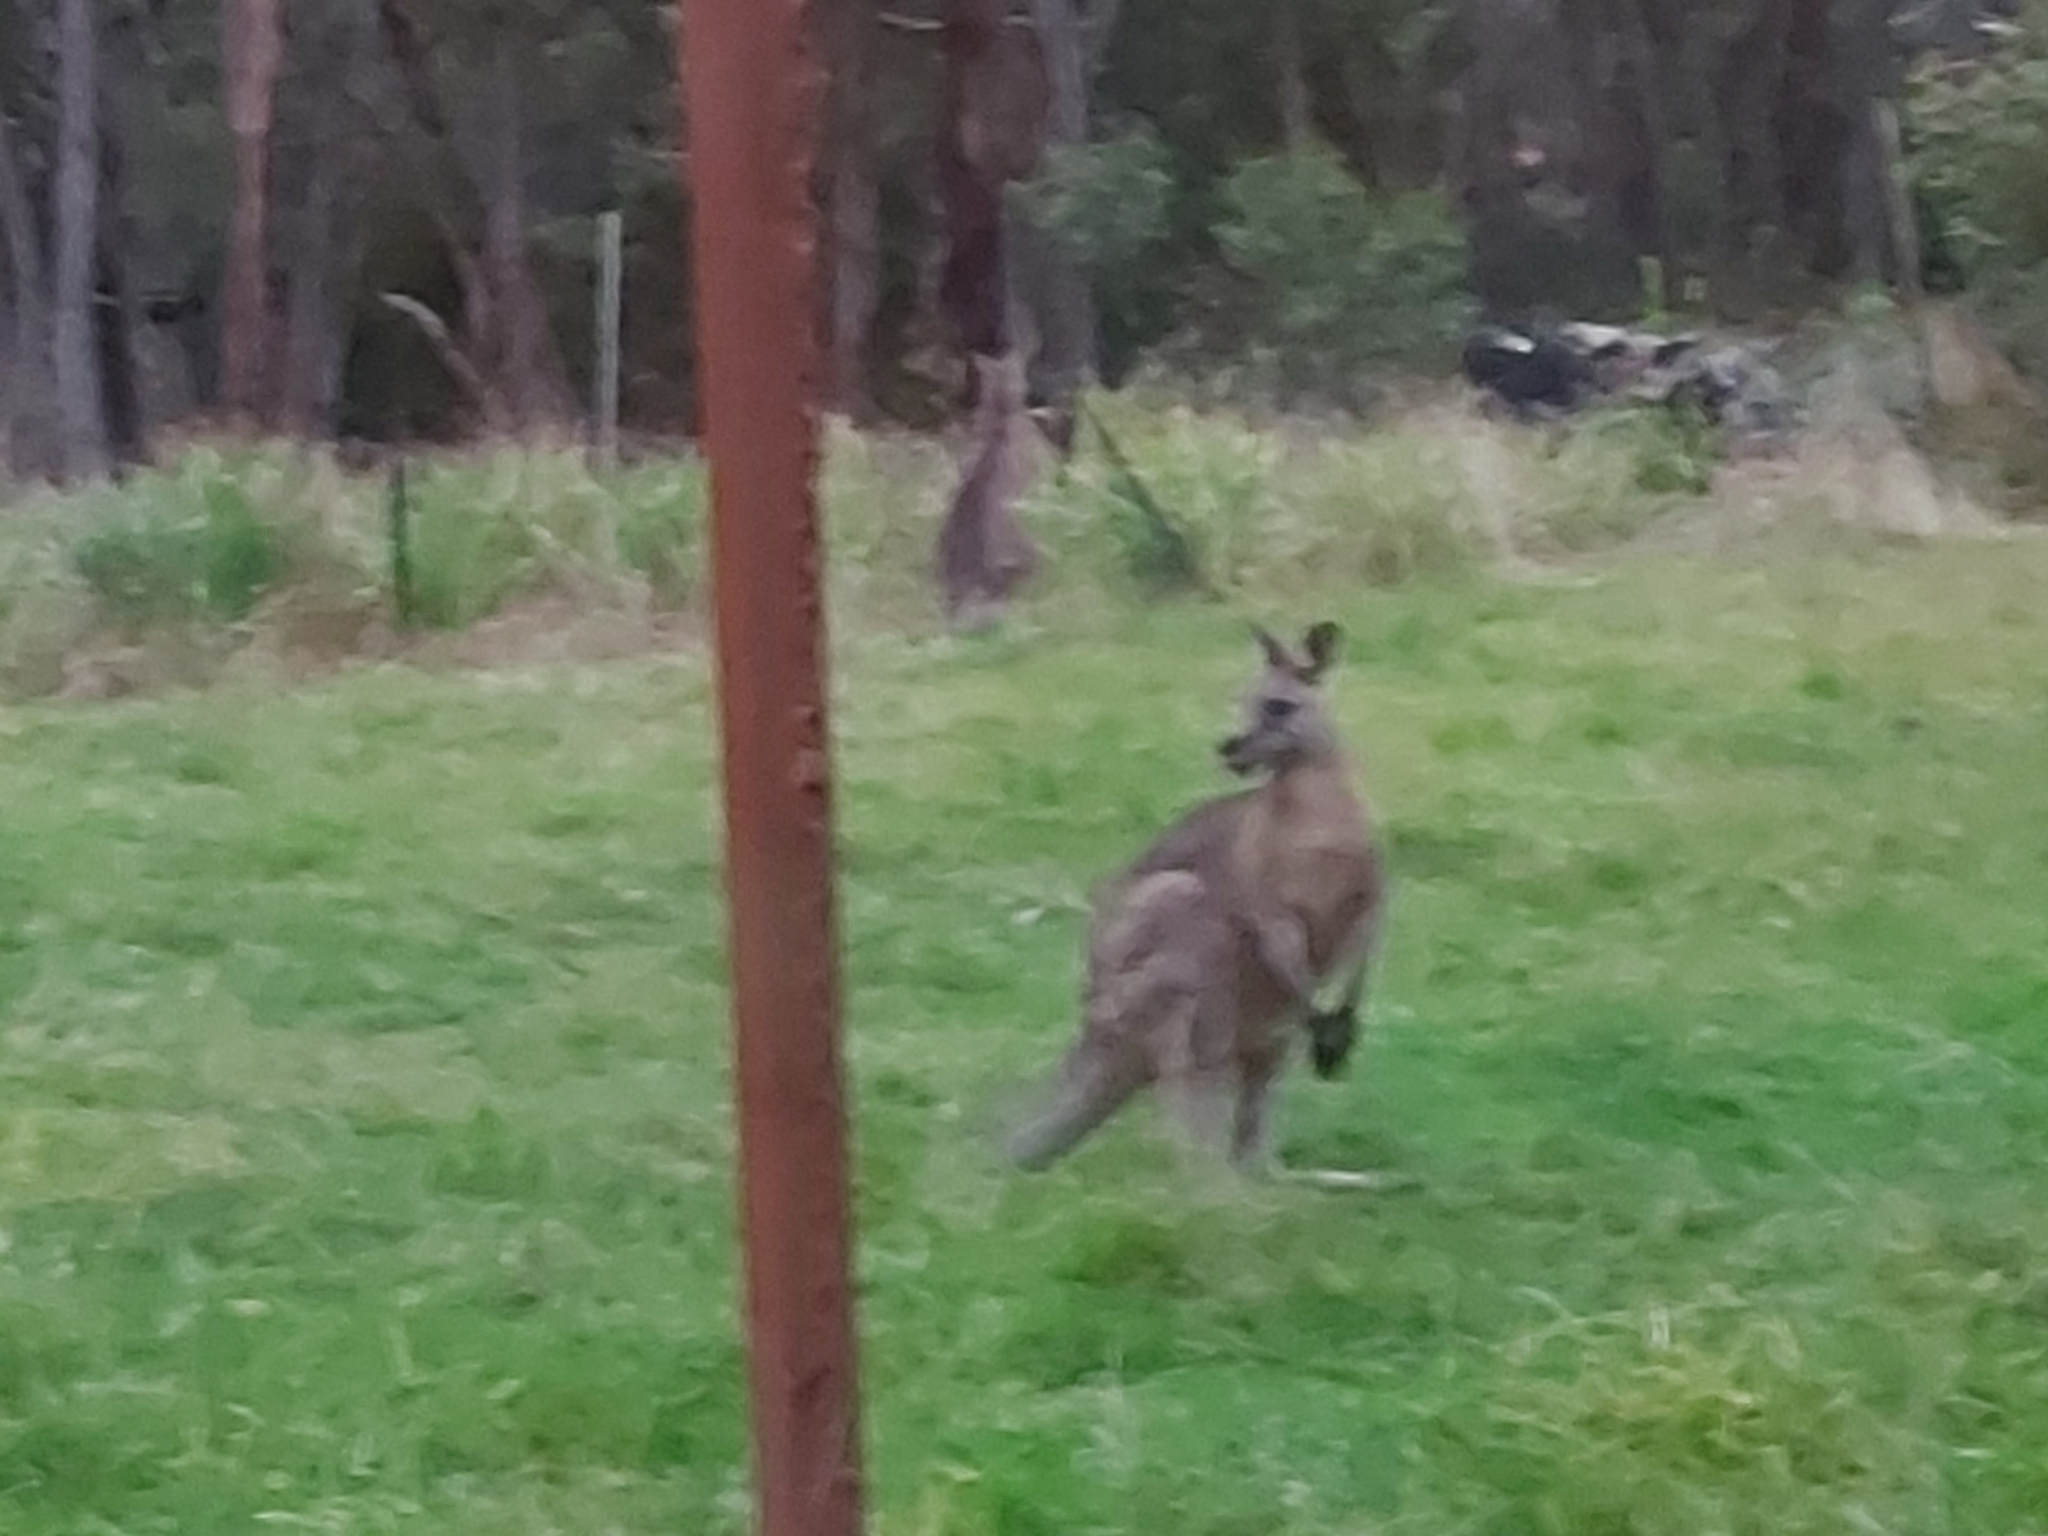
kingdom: Animalia
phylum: Chordata
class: Mammalia
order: Diprotodontia
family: Macropodidae
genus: Macropus
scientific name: Macropus giganteus
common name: Eastern grey kangaroo
